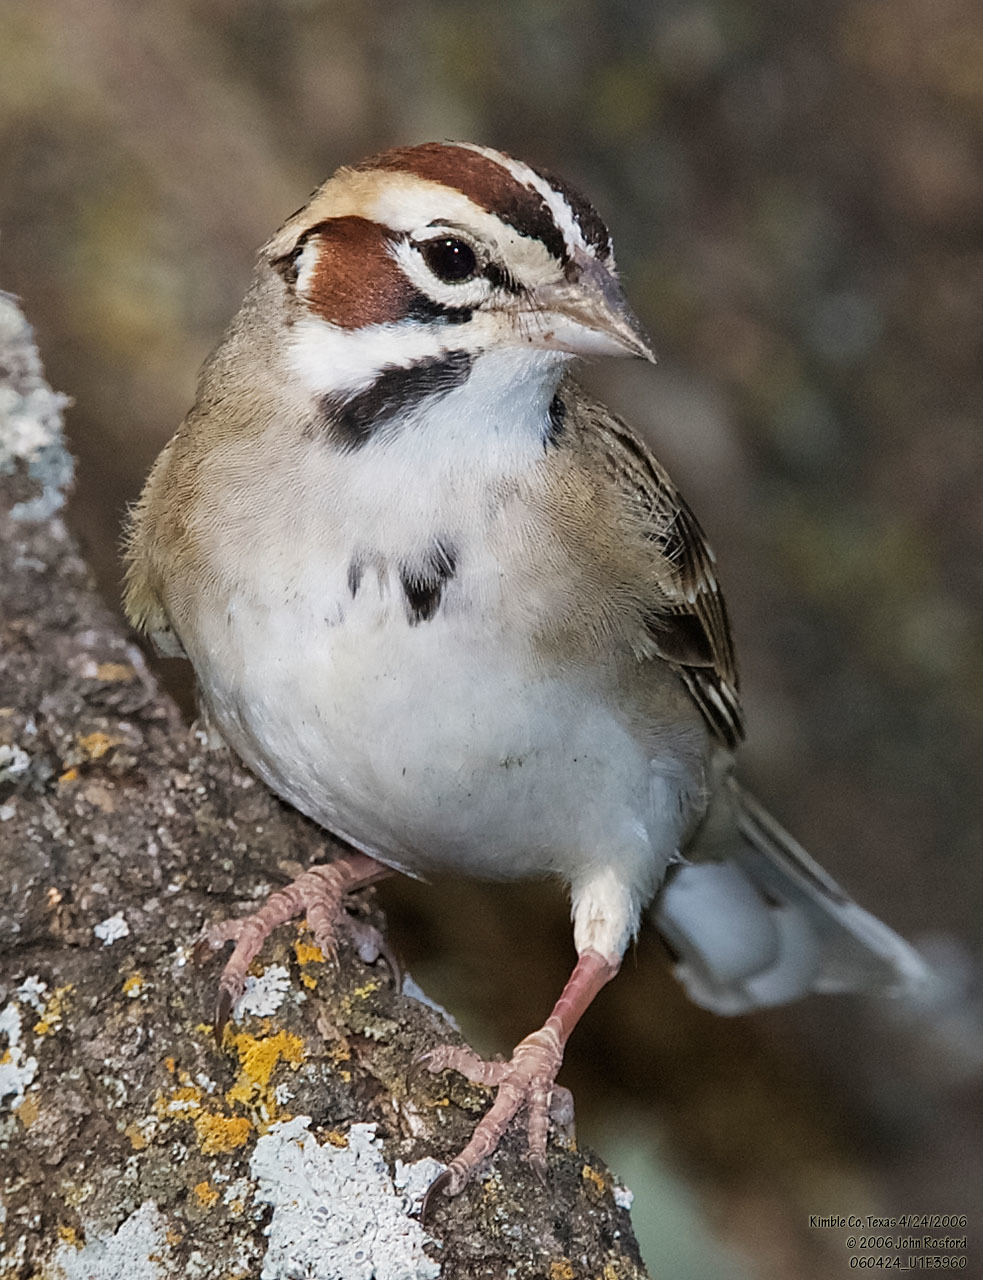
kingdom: Animalia
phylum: Chordata
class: Aves
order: Passeriformes
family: Passerellidae
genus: Chondestes
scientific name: Chondestes grammacus
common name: Lark sparrow
